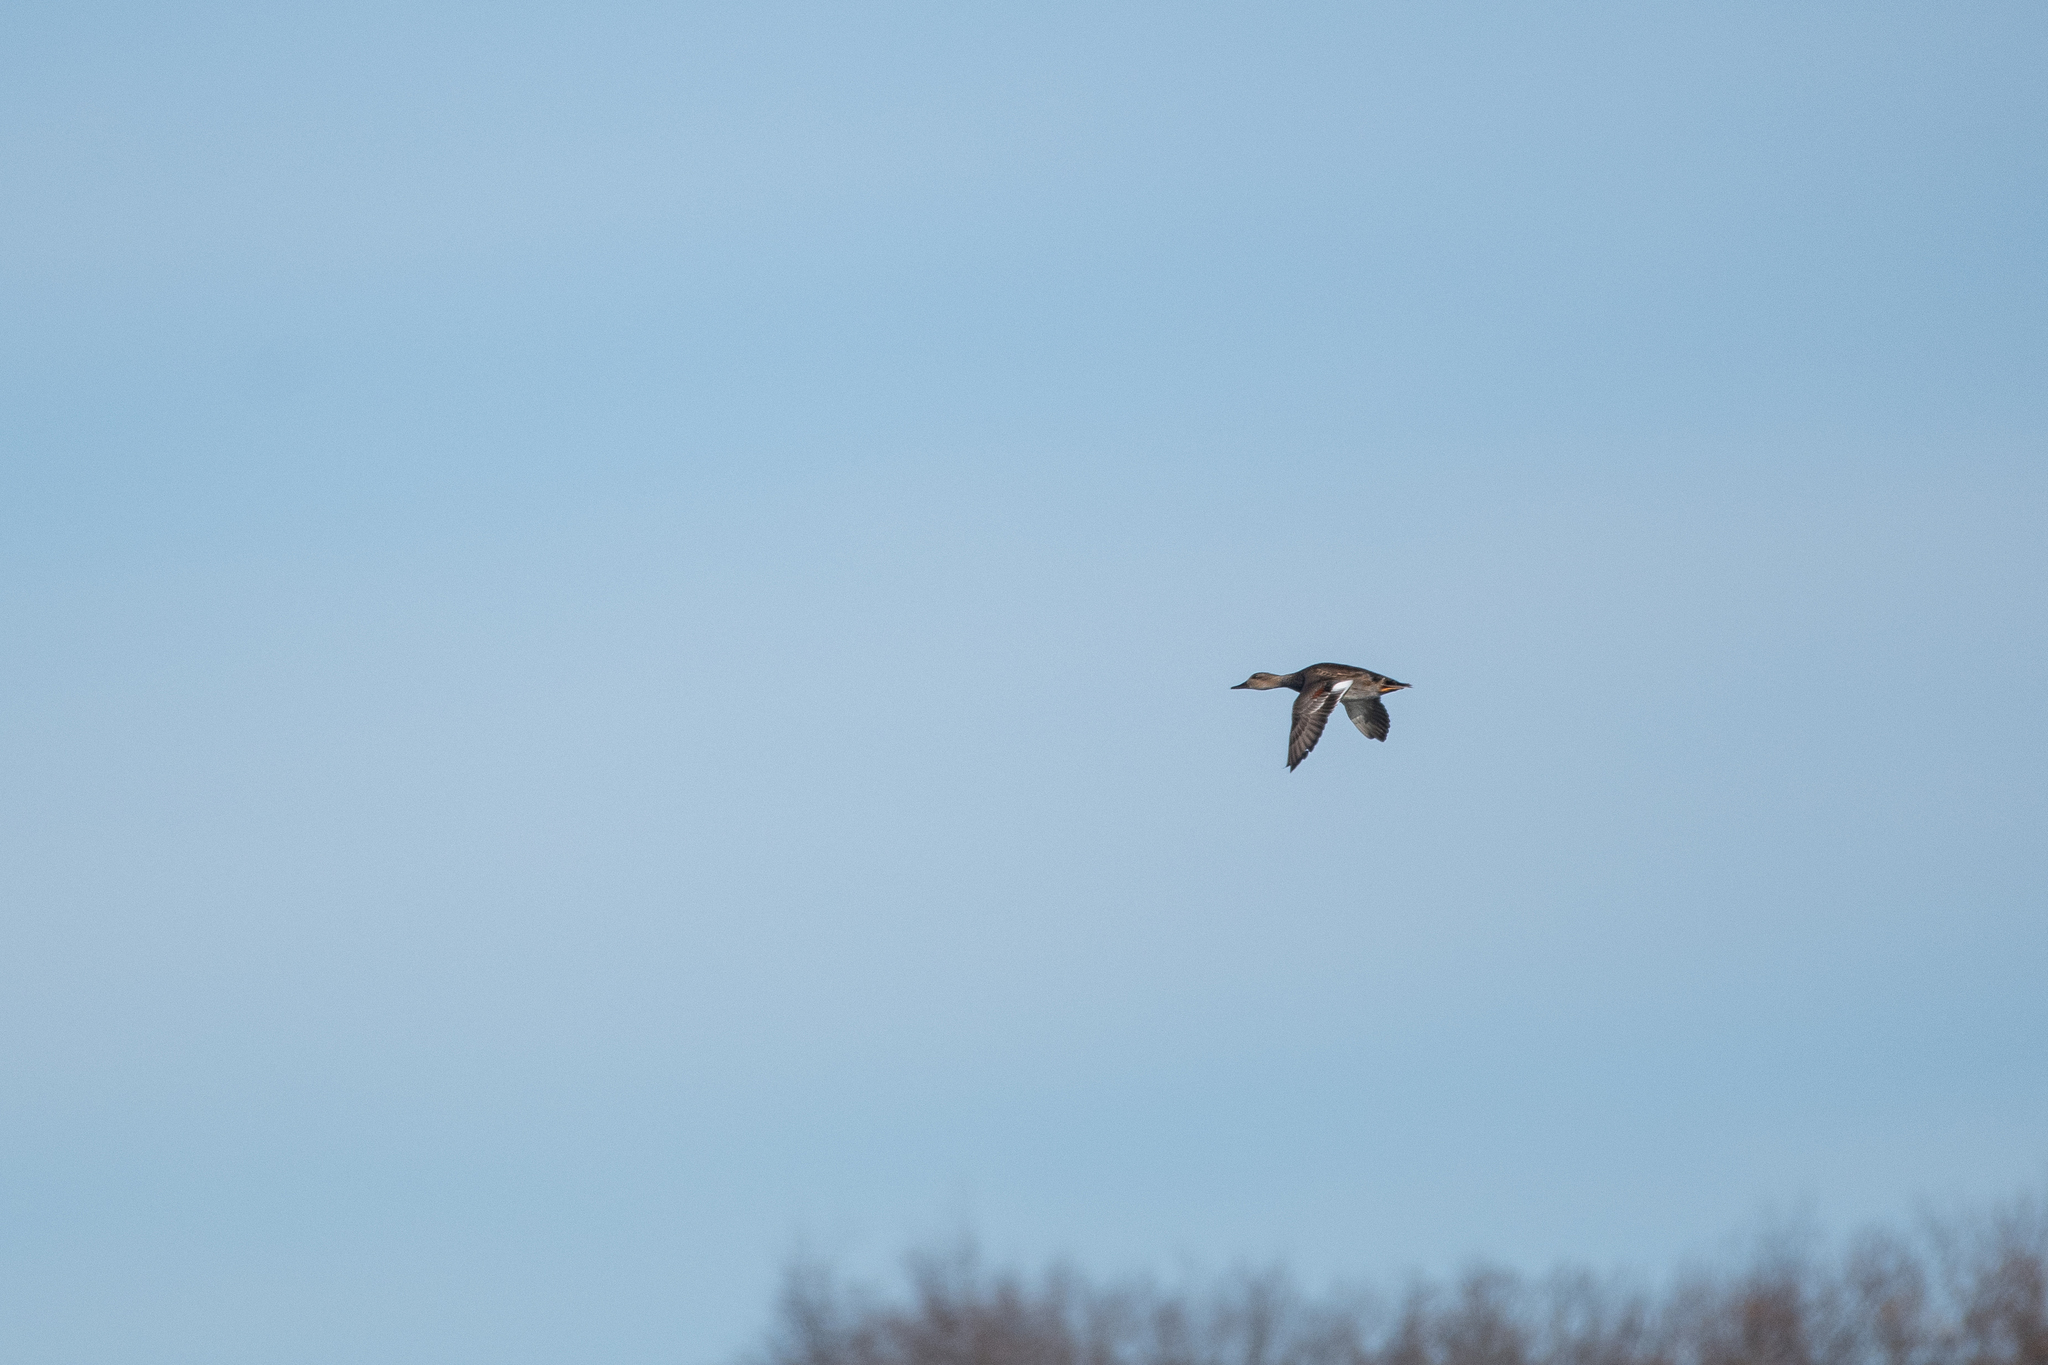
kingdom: Animalia
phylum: Chordata
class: Aves
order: Anseriformes
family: Anatidae
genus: Mareca
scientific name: Mareca strepera
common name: Gadwall
